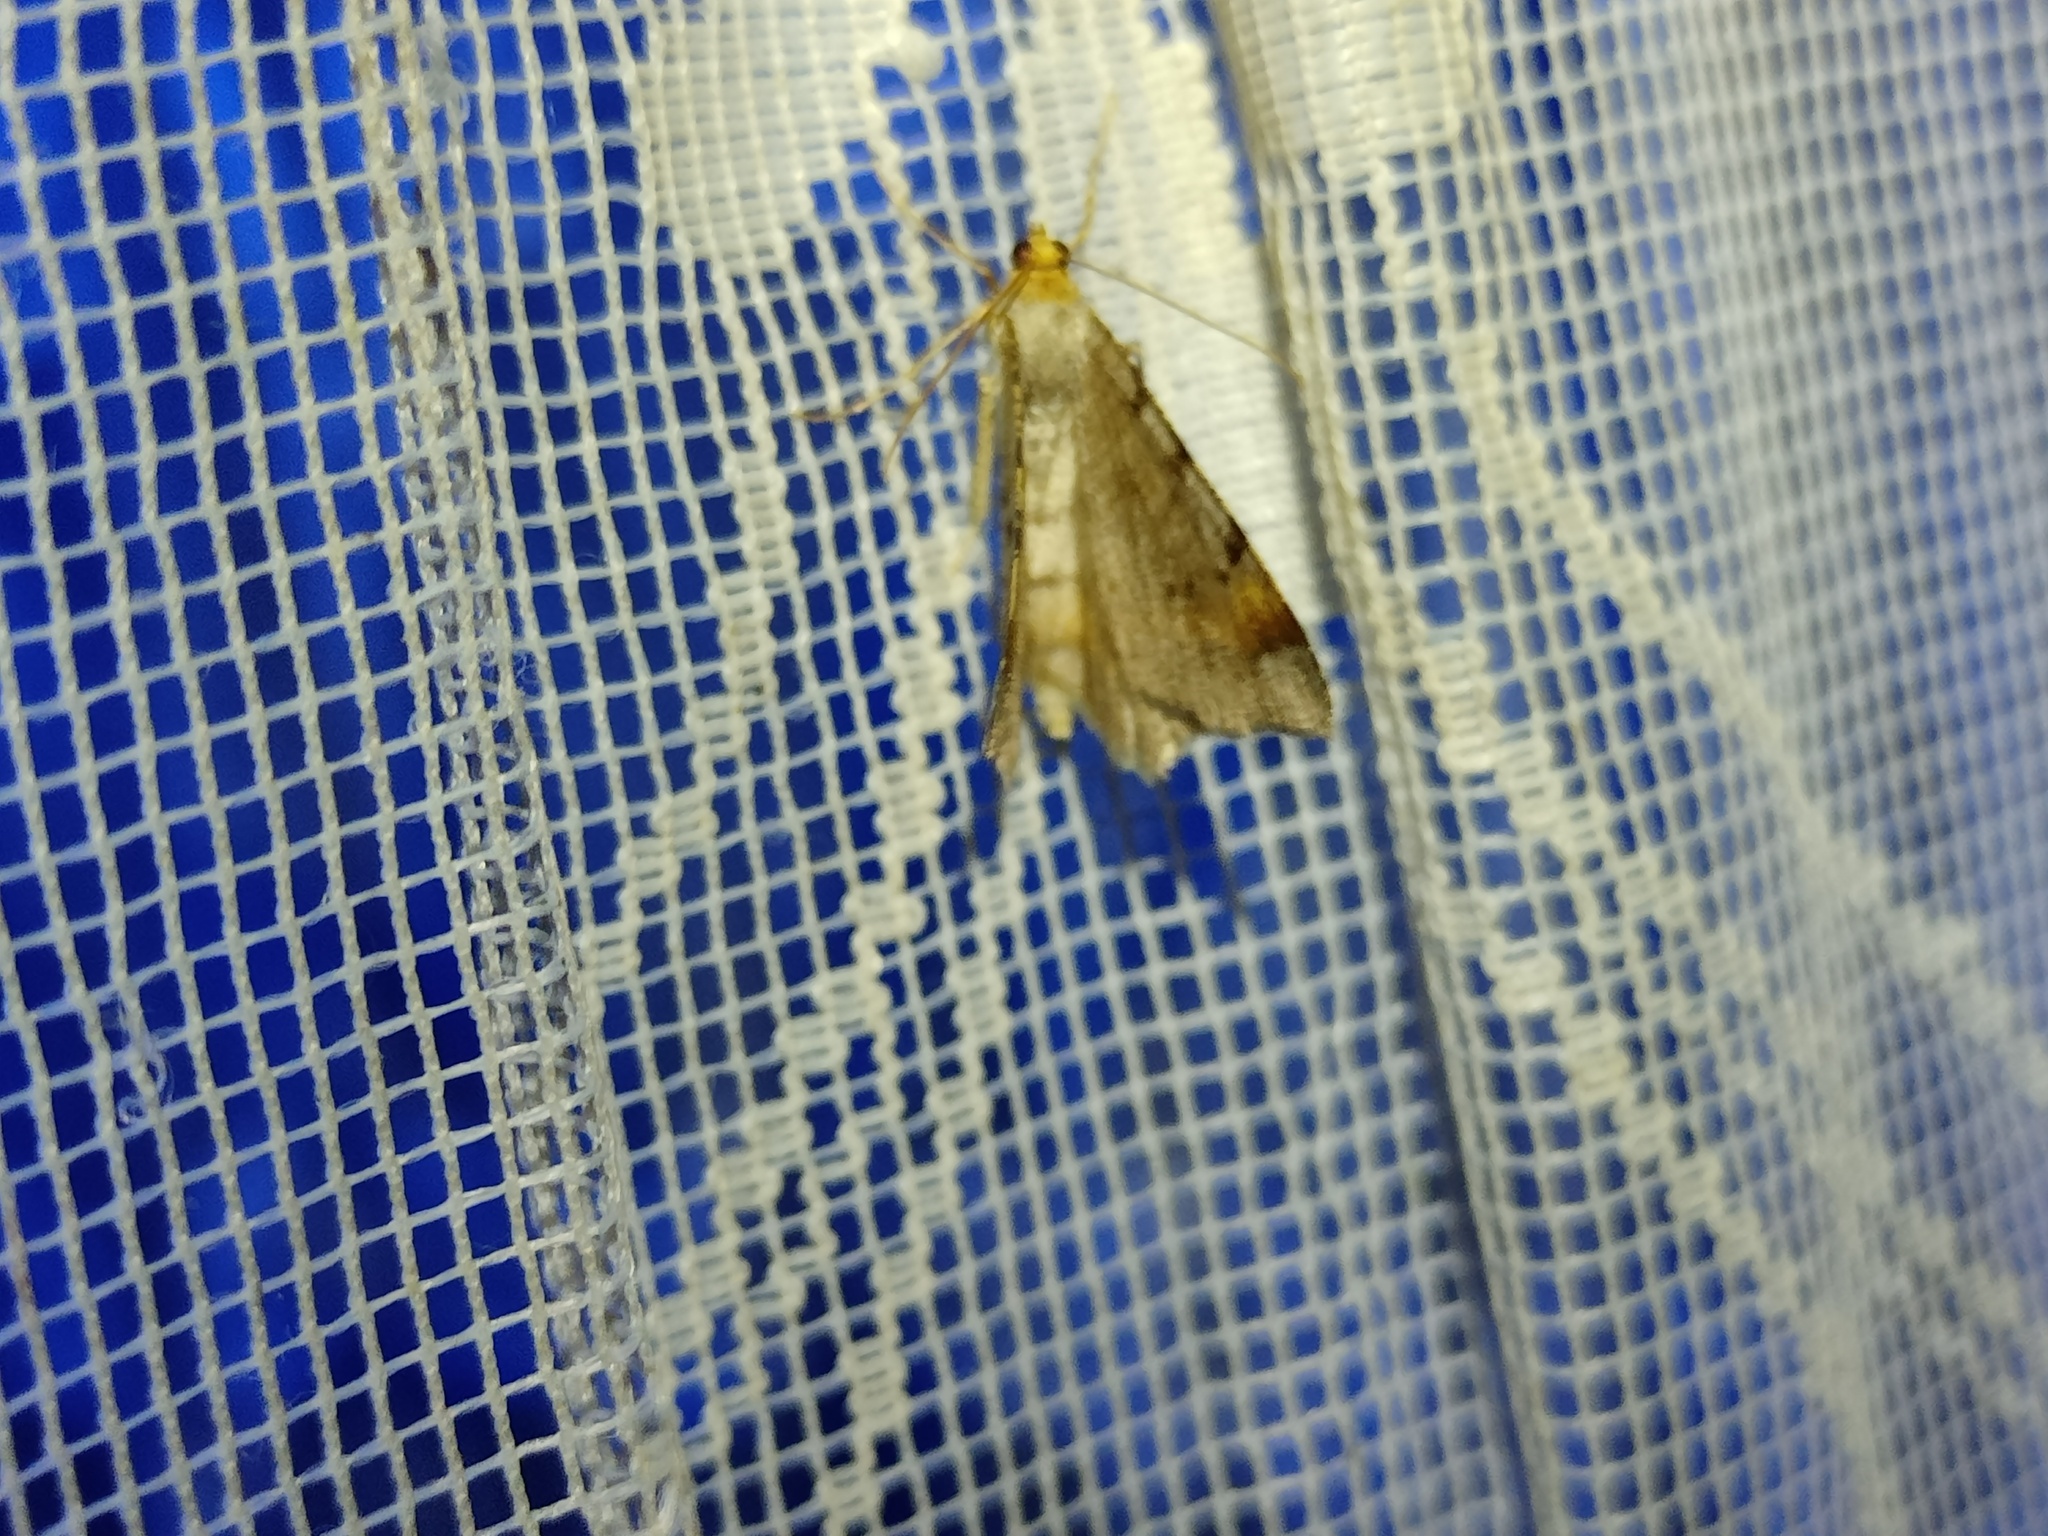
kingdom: Animalia
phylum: Arthropoda
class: Insecta
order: Lepidoptera
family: Geometridae
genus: Macaria
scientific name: Macaria liturata
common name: Tawny-barred angle
